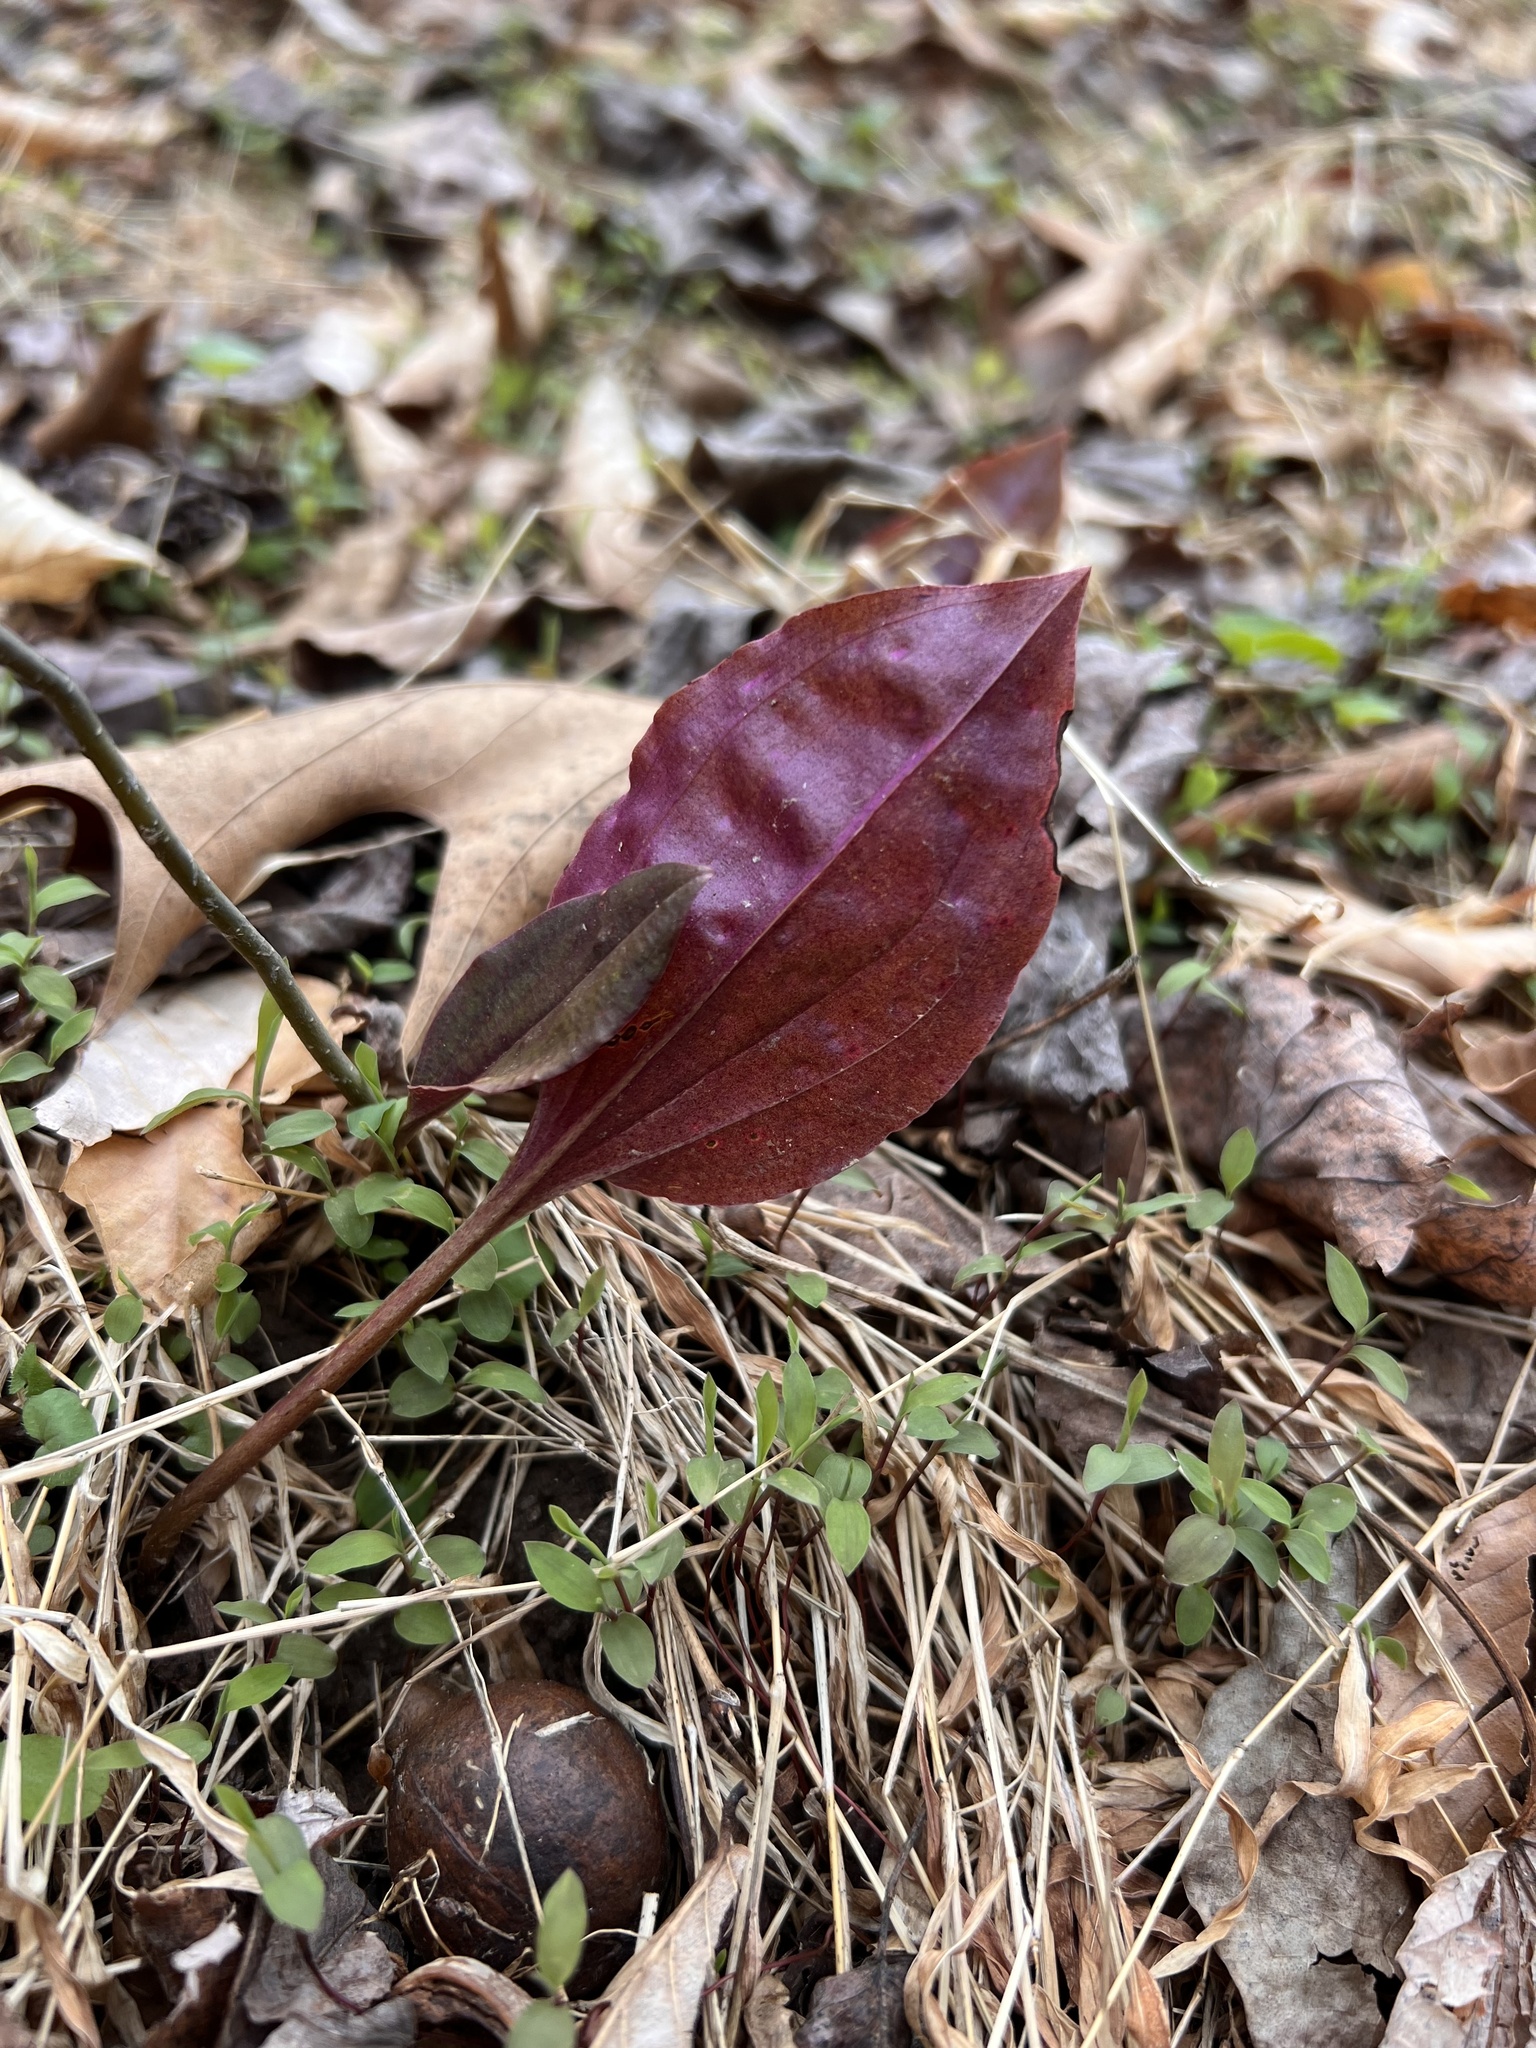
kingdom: Plantae
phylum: Tracheophyta
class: Liliopsida
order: Asparagales
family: Orchidaceae
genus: Tipularia
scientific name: Tipularia discolor
